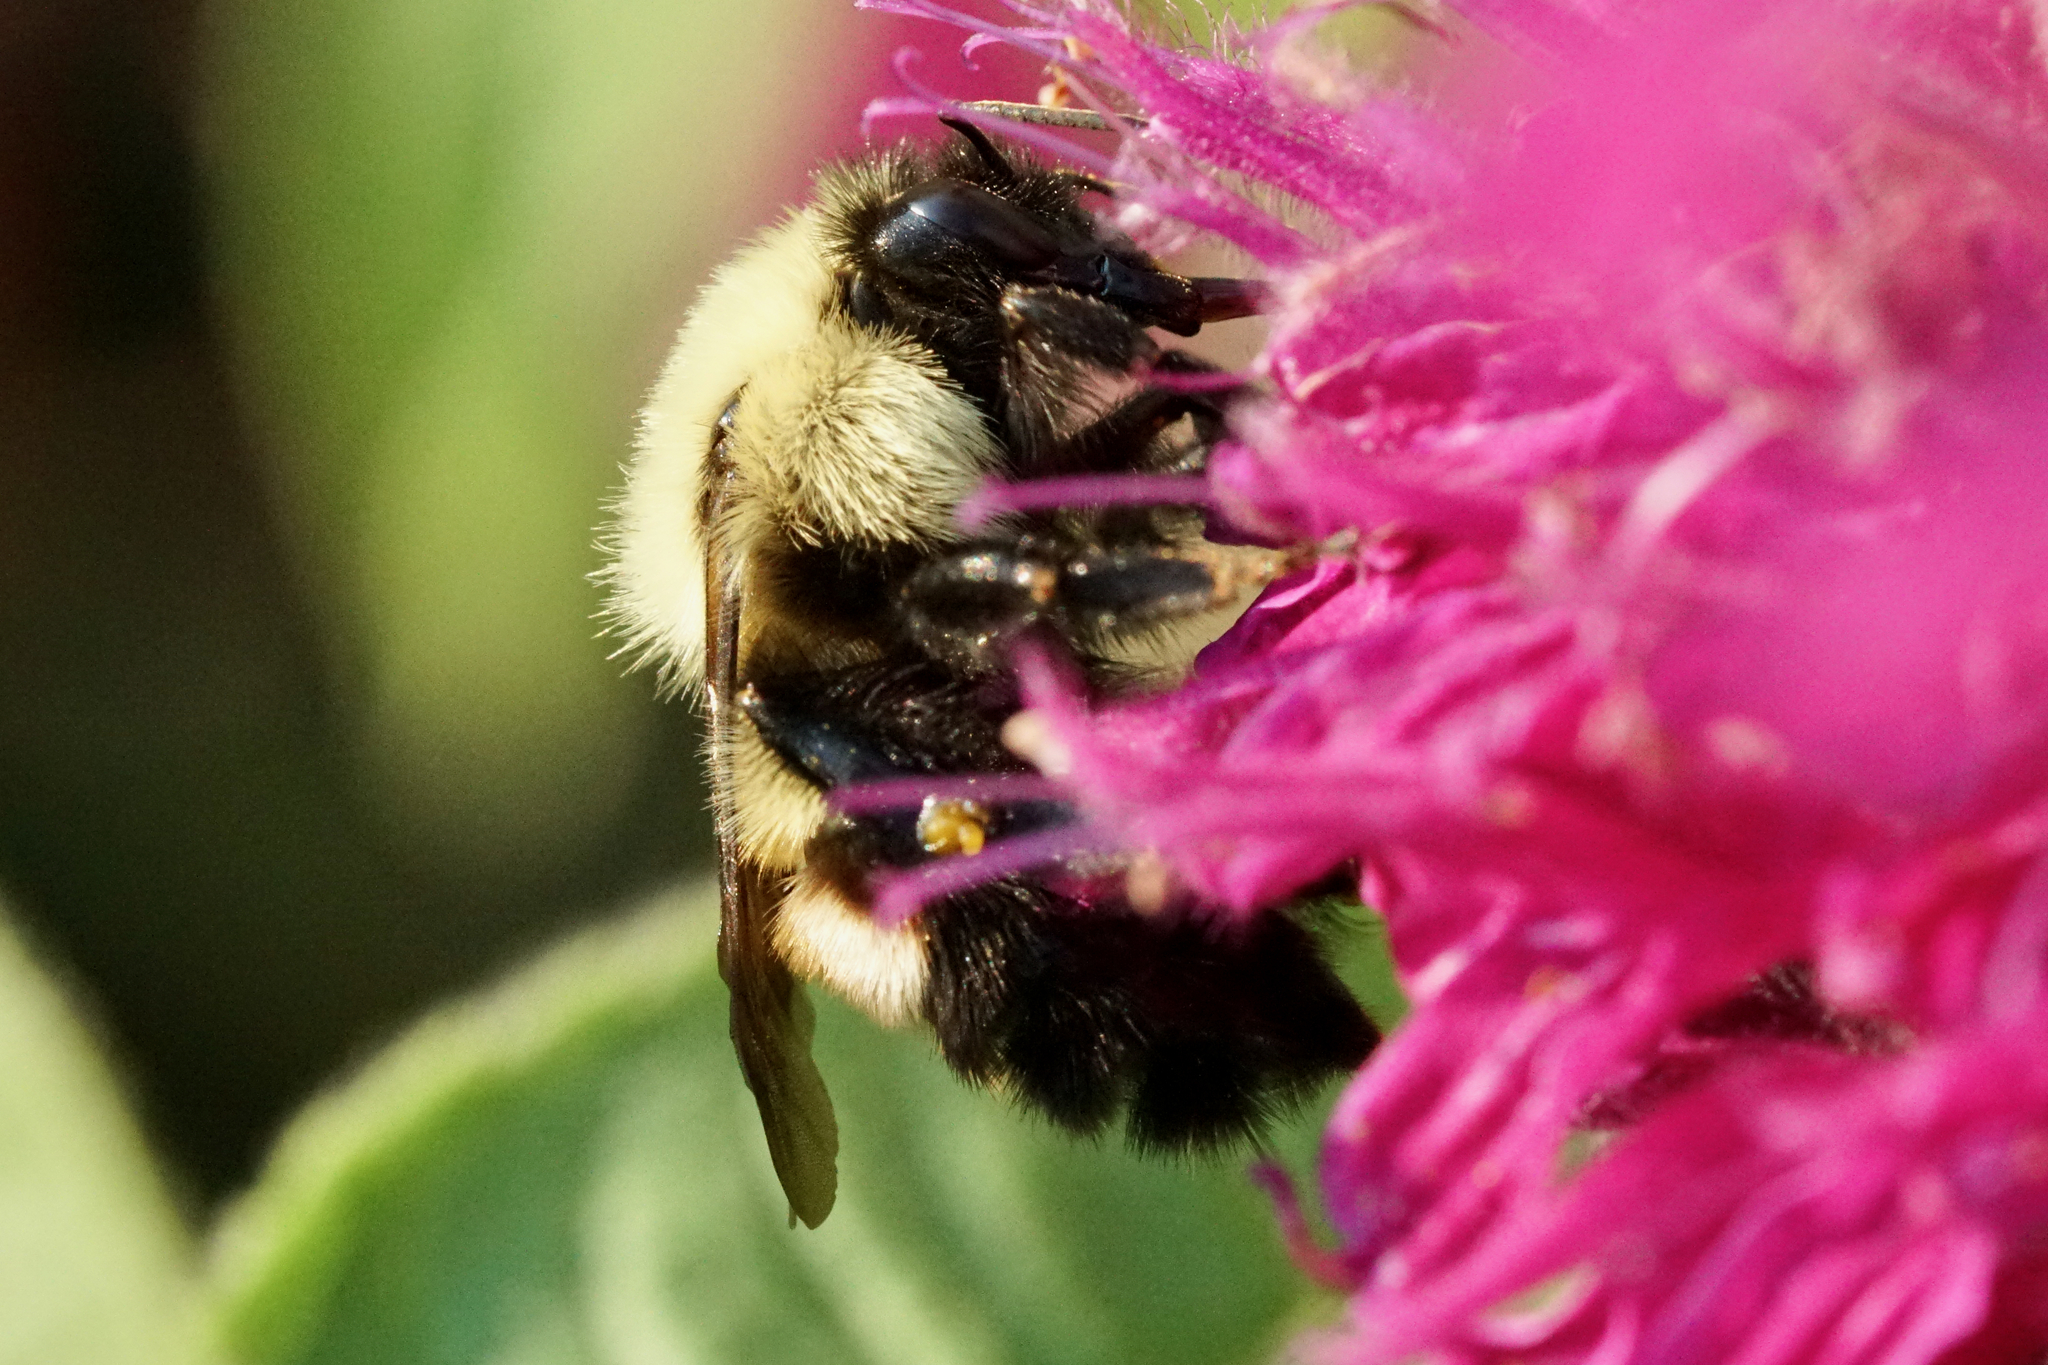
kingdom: Animalia
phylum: Arthropoda
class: Insecta
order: Hymenoptera
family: Apidae
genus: Bombus
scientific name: Bombus bimaculatus
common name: Two-spotted bumble bee
